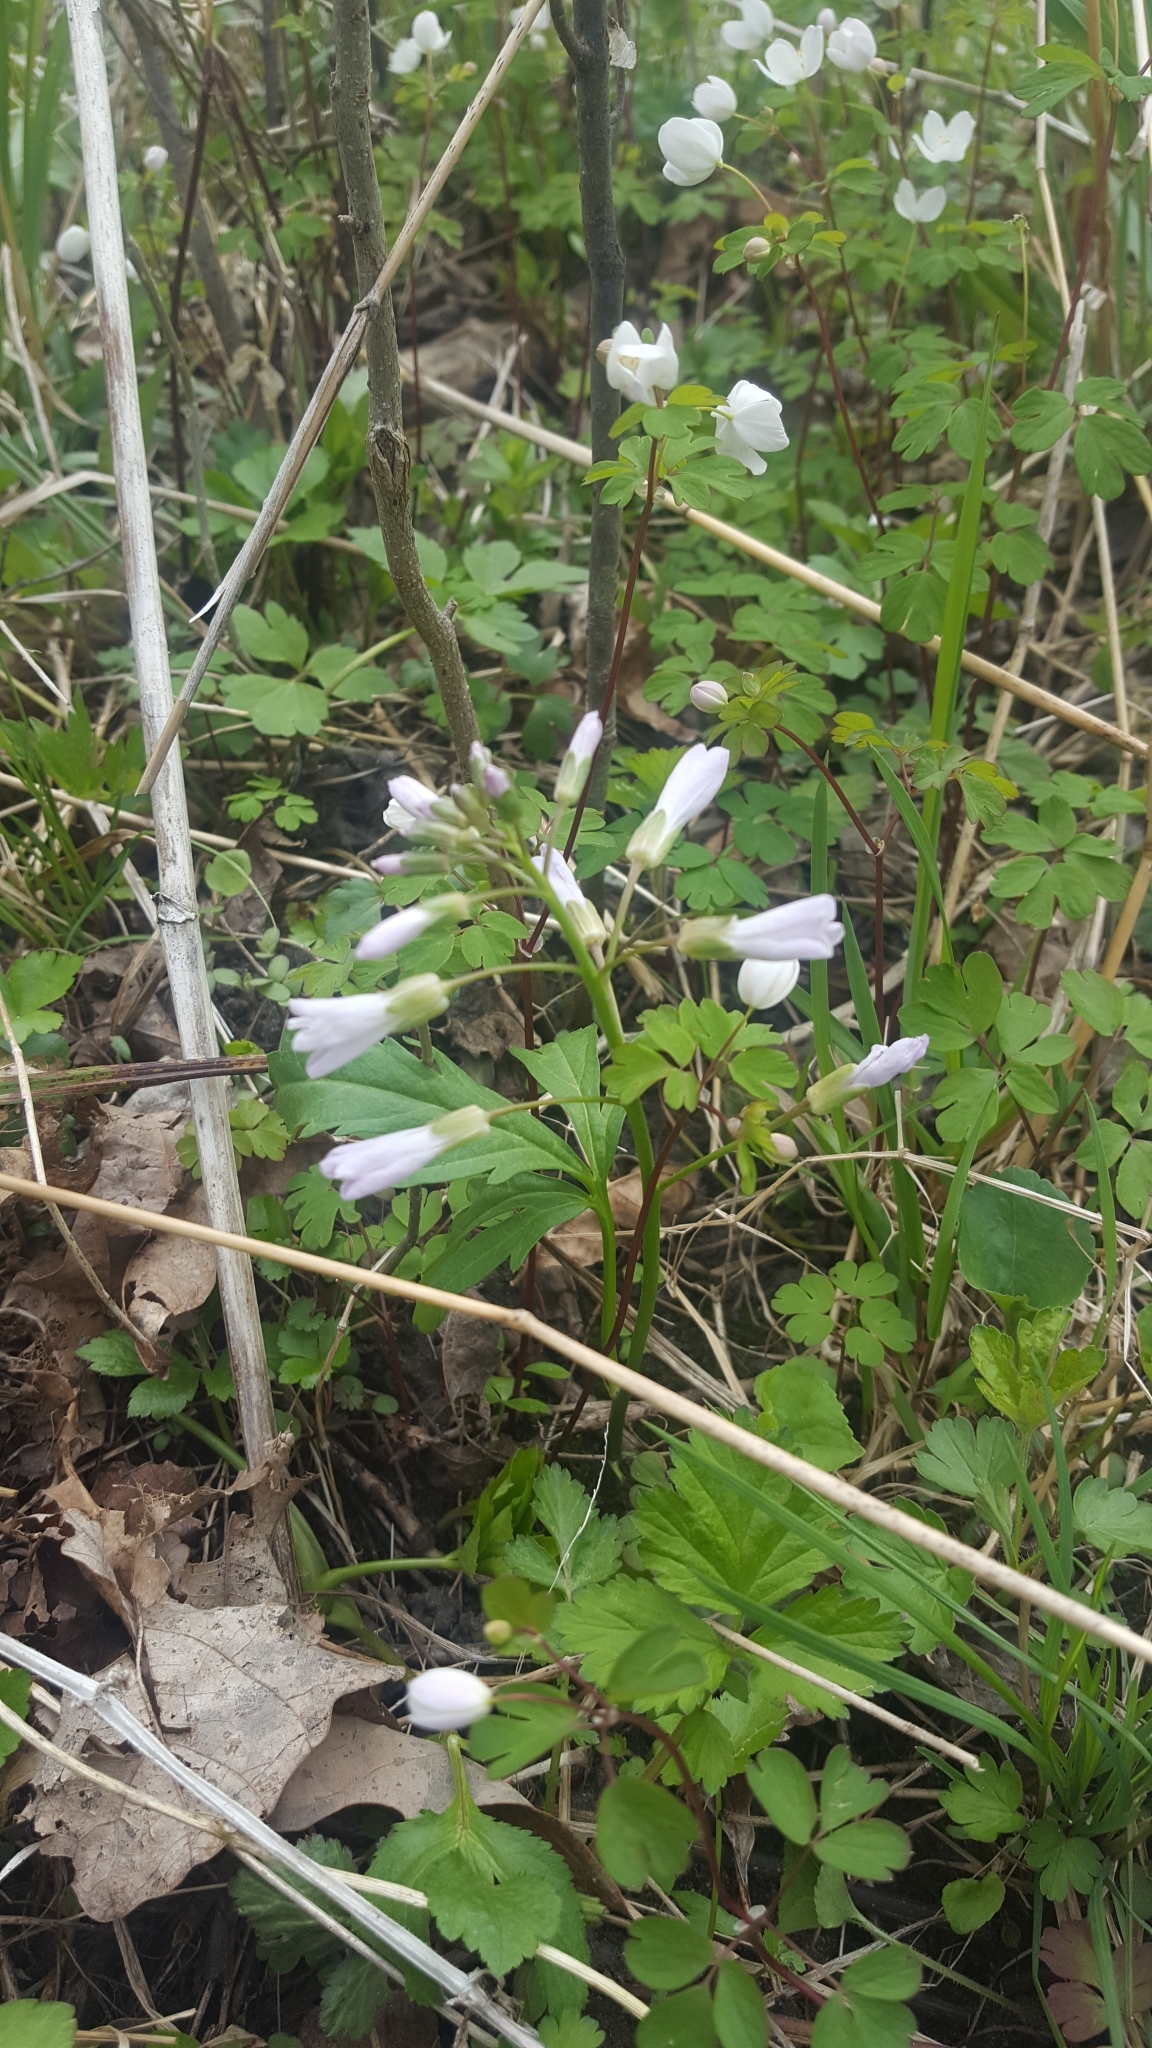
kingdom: Plantae
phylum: Tracheophyta
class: Magnoliopsida
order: Brassicales
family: Brassicaceae
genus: Cardamine
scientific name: Cardamine concatenata
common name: Cut-leaf toothcup
